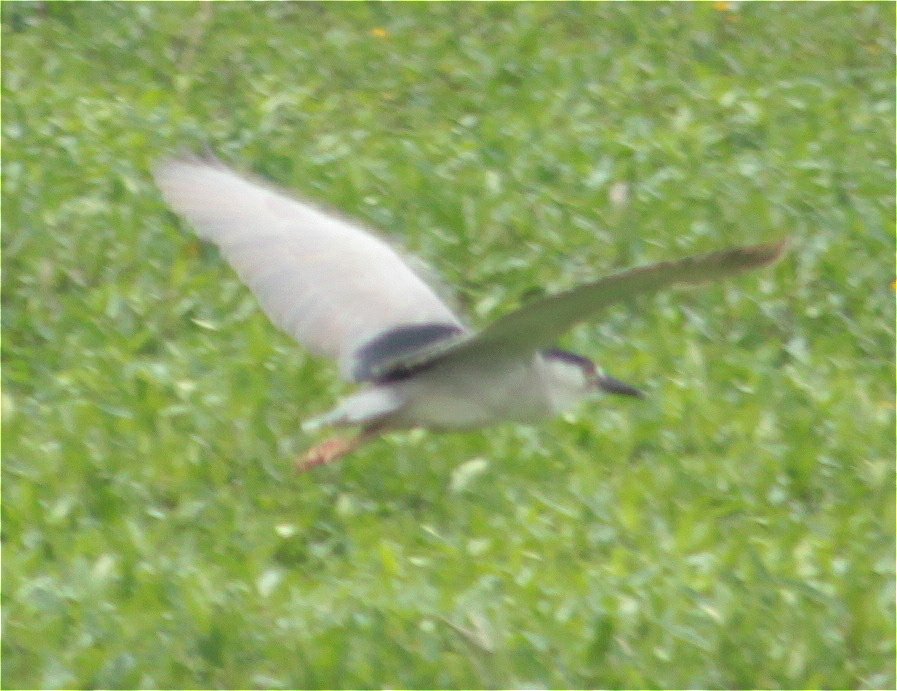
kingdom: Animalia
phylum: Chordata
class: Aves
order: Pelecaniformes
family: Ardeidae
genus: Nycticorax
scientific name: Nycticorax nycticorax
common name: Black-crowned night heron
